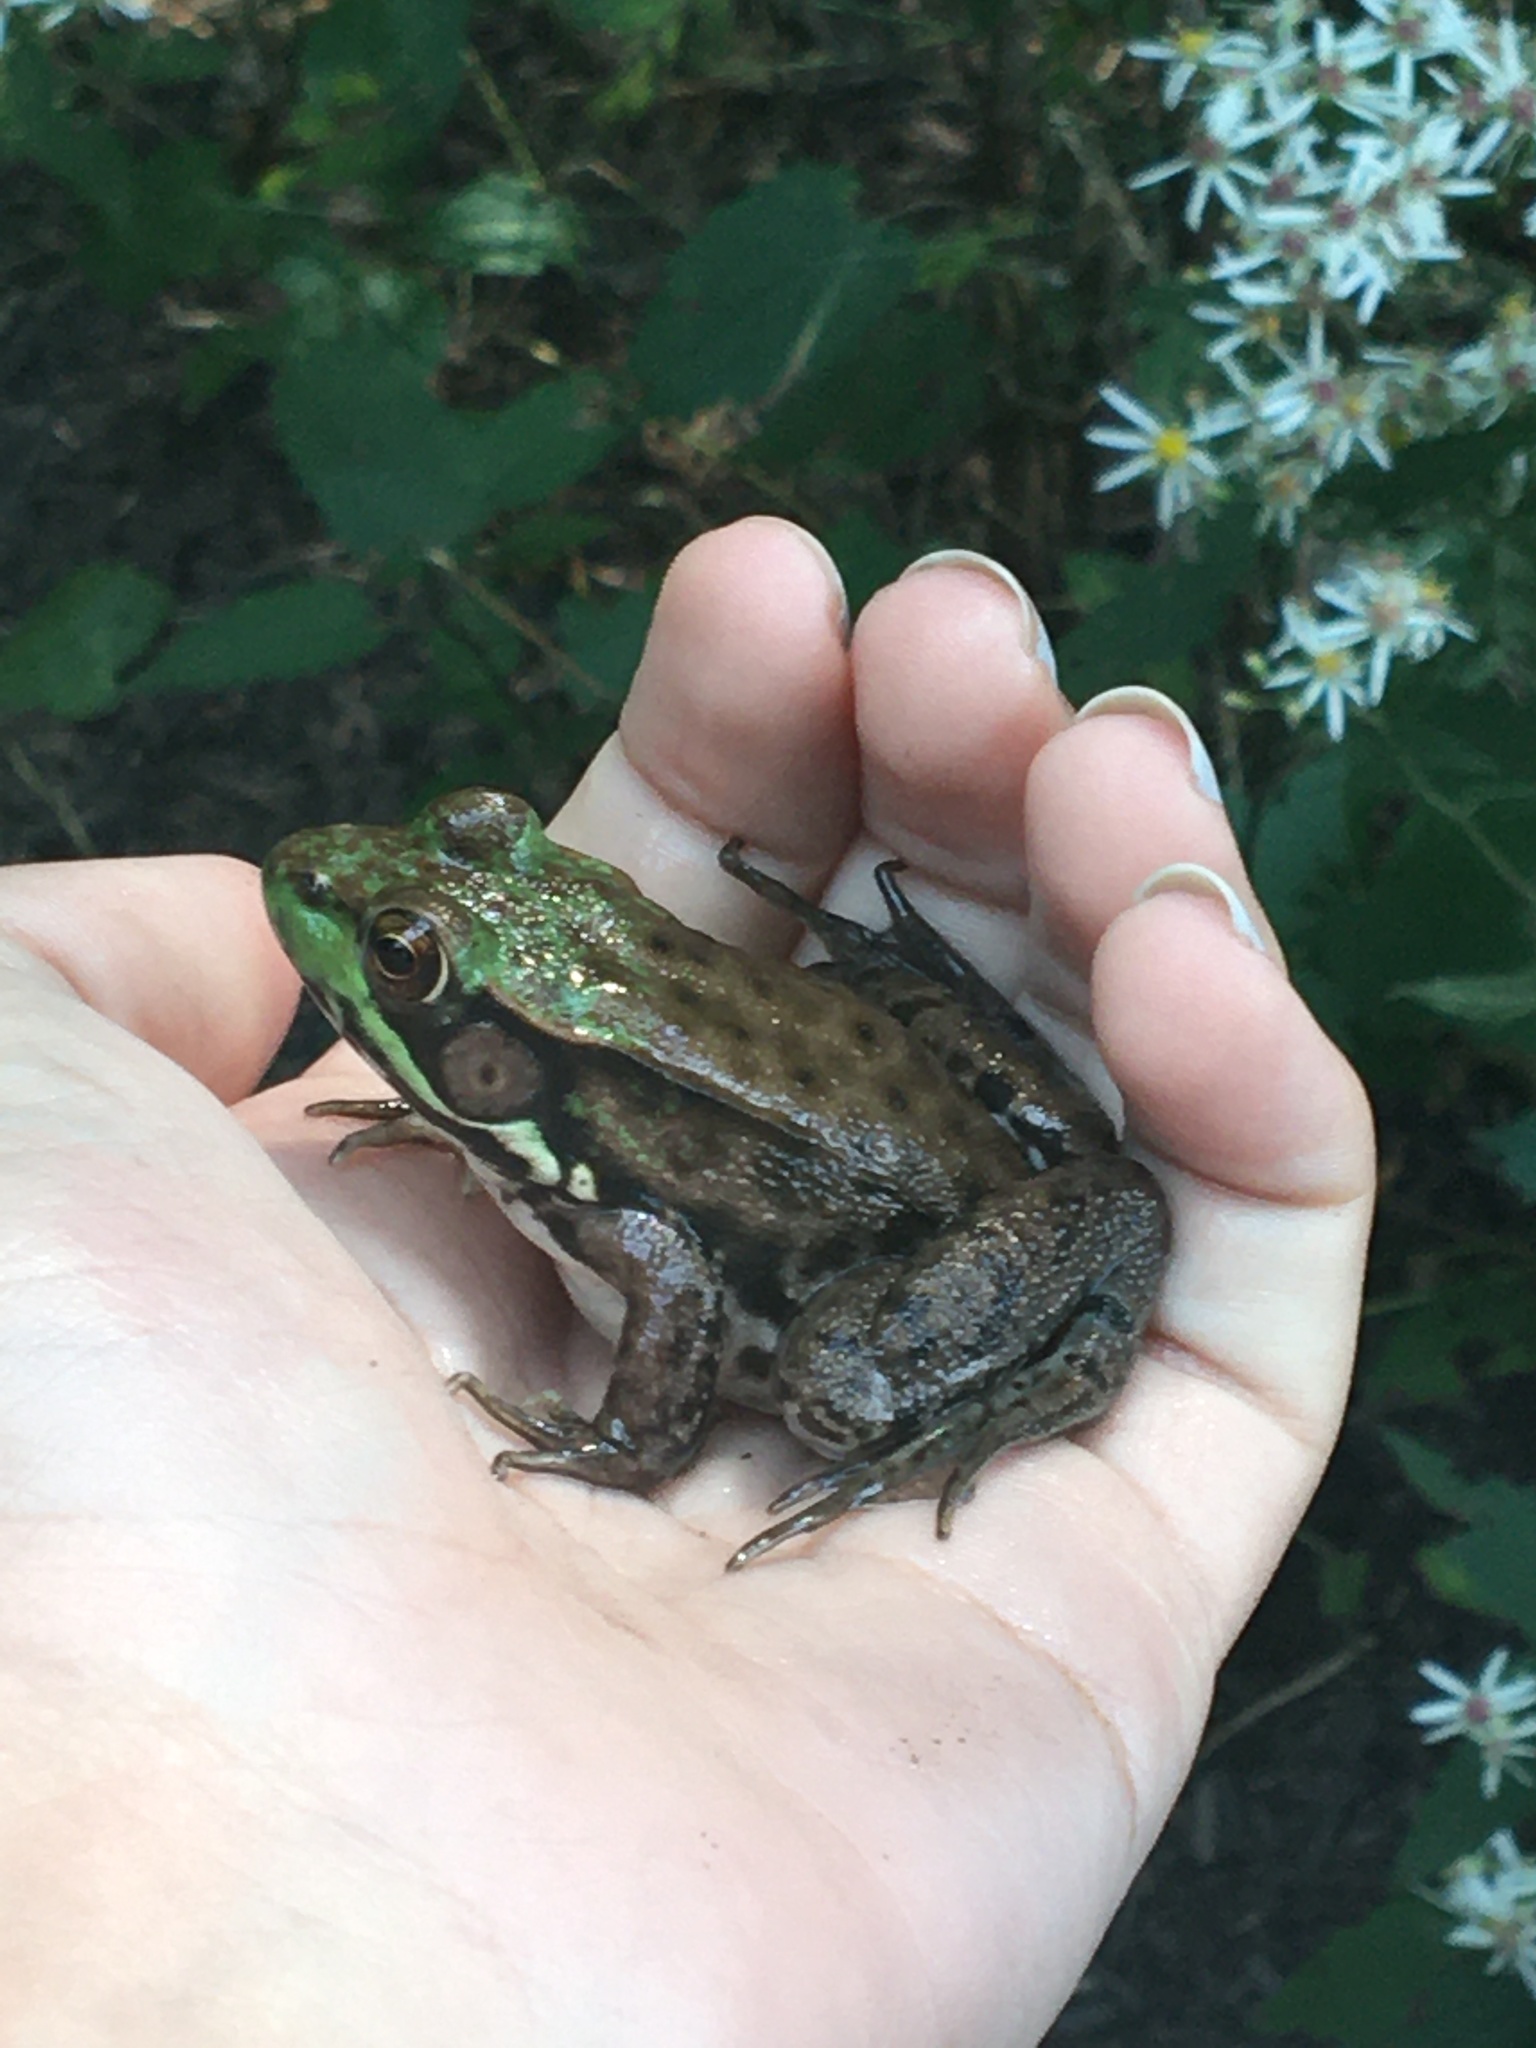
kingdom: Animalia
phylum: Chordata
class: Amphibia
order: Anura
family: Ranidae
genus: Lithobates
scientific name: Lithobates clamitans
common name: Green frog
